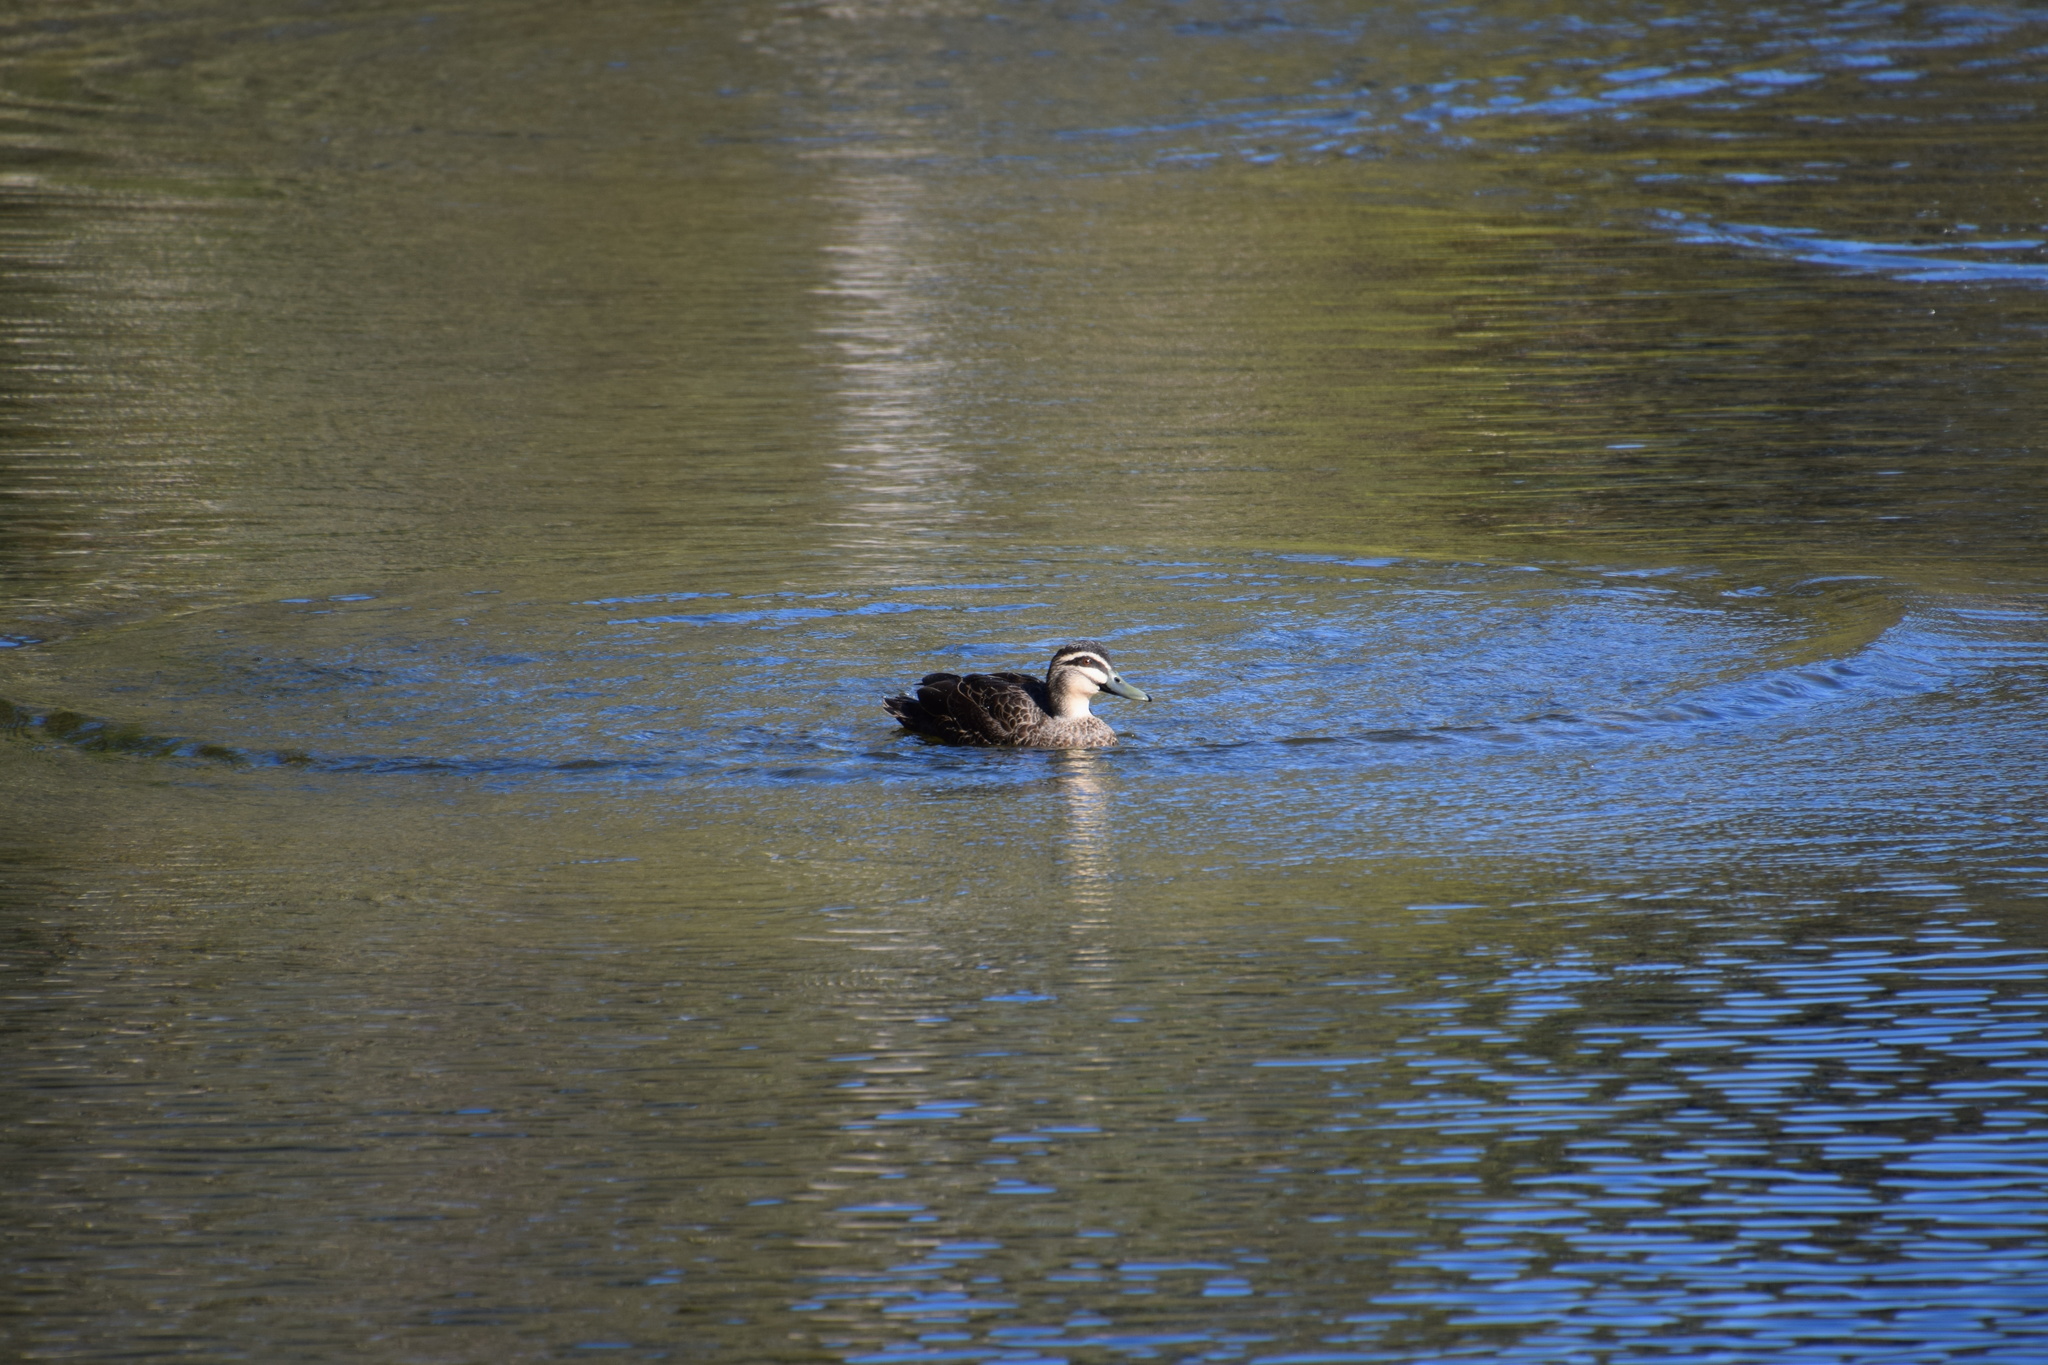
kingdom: Animalia
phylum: Chordata
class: Aves
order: Anseriformes
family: Anatidae
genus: Anas
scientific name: Anas superciliosa
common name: Pacific black duck
